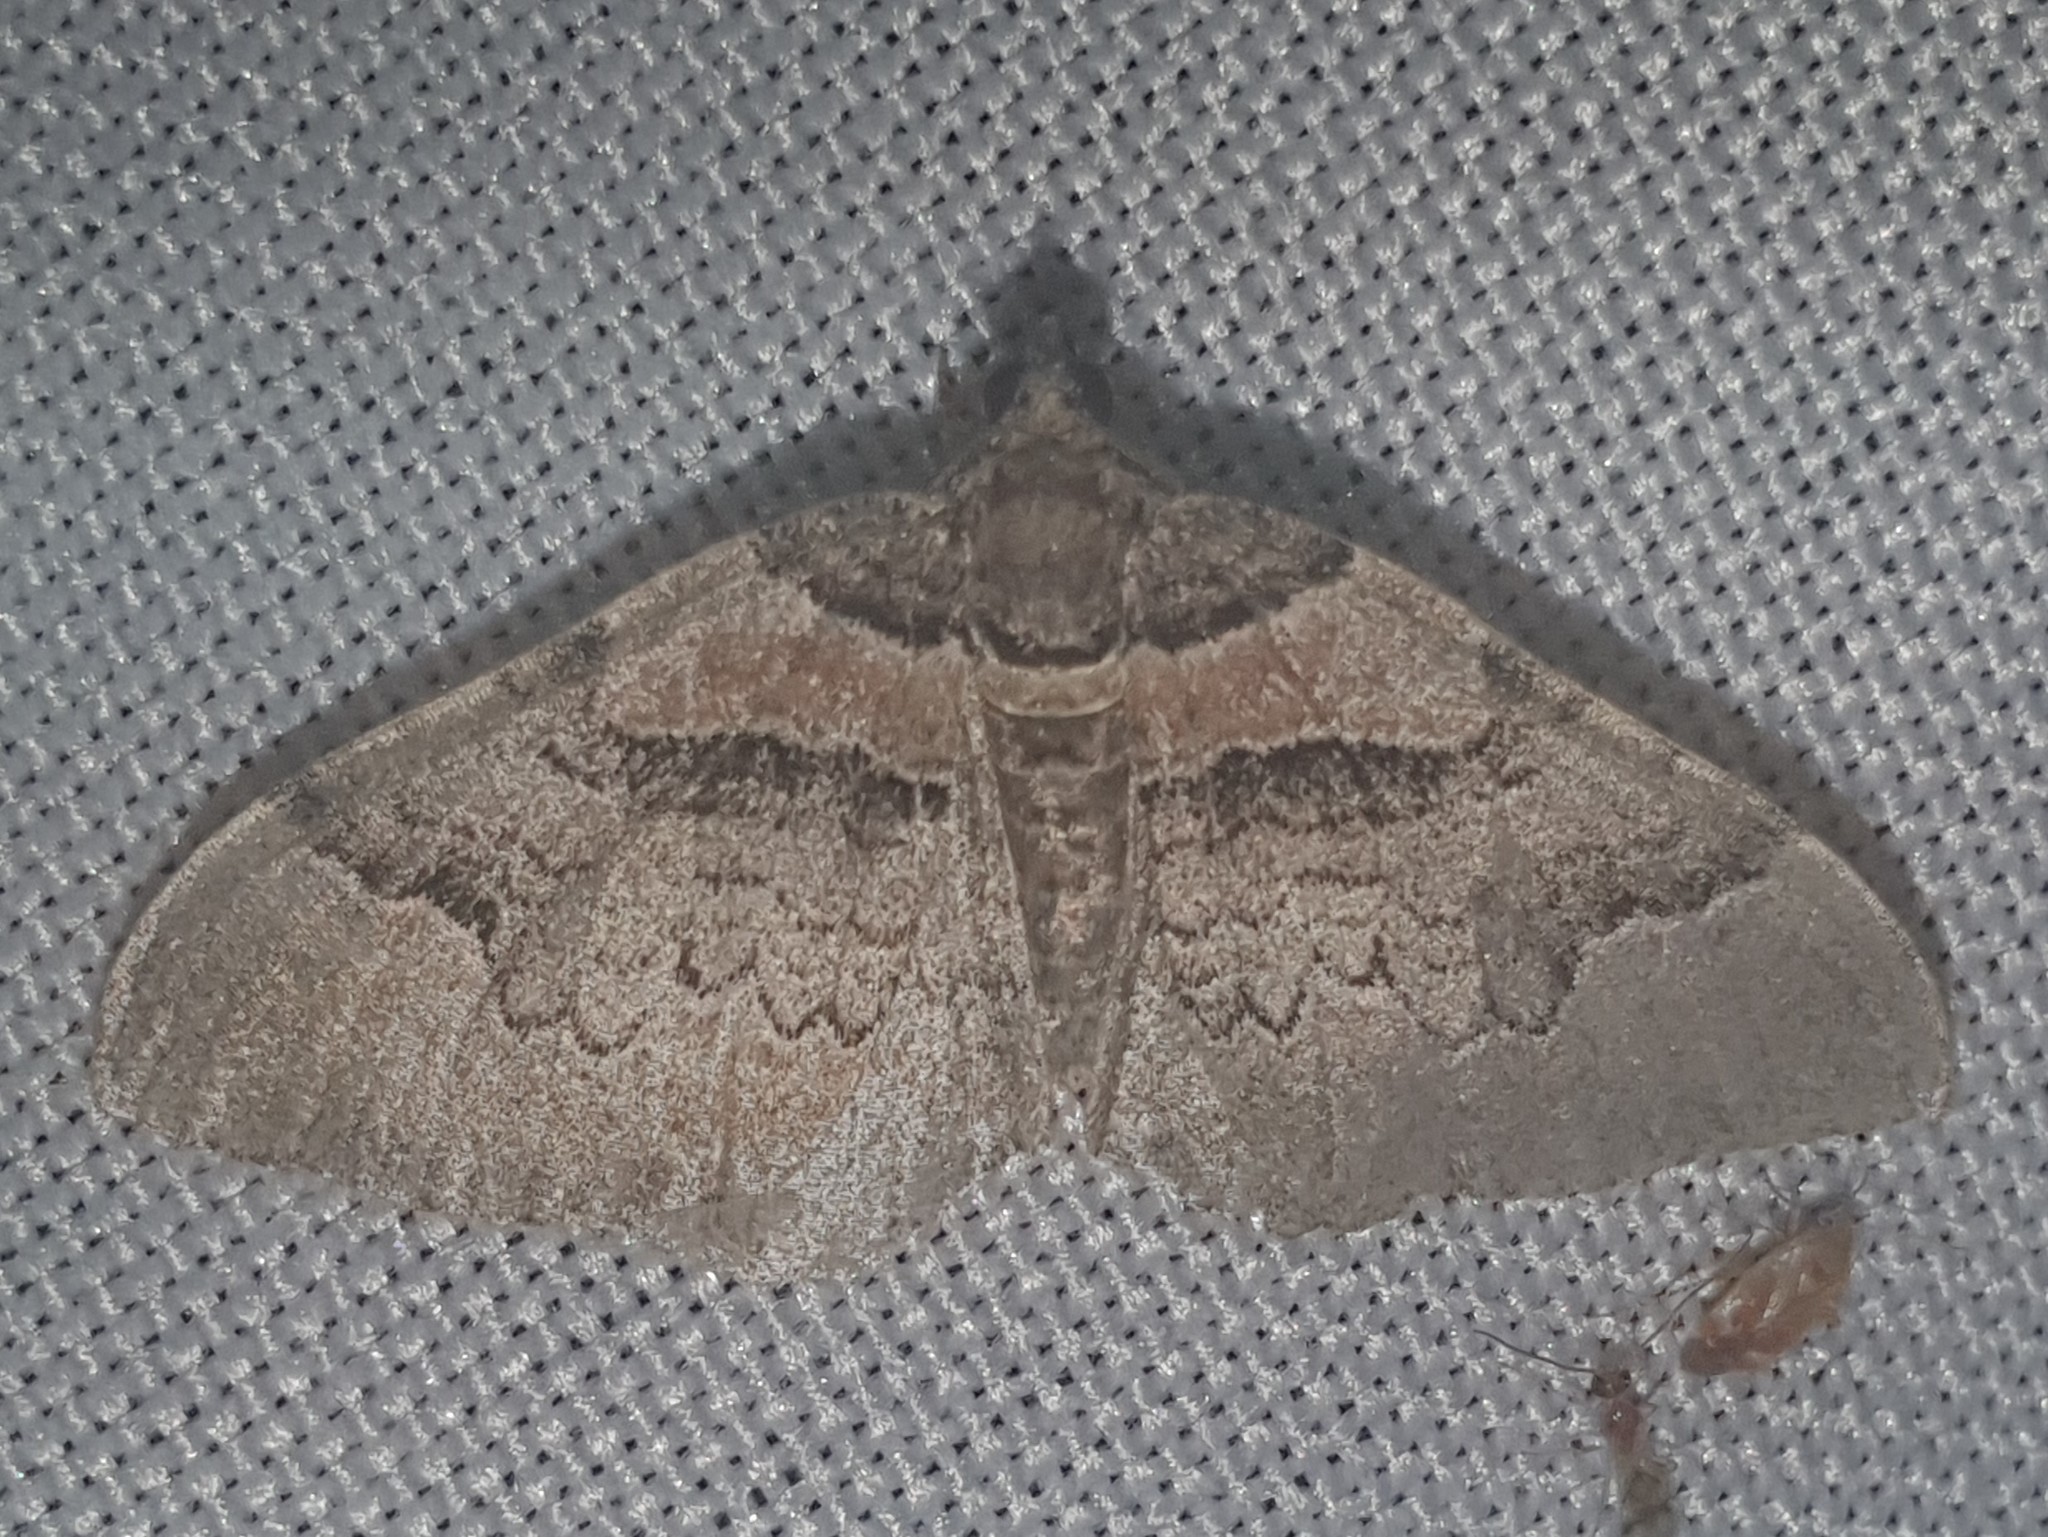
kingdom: Animalia
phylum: Arthropoda
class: Insecta
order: Lepidoptera
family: Geometridae
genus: Catarhoe
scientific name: Catarhoe rubidata
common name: Ruddy carpet
